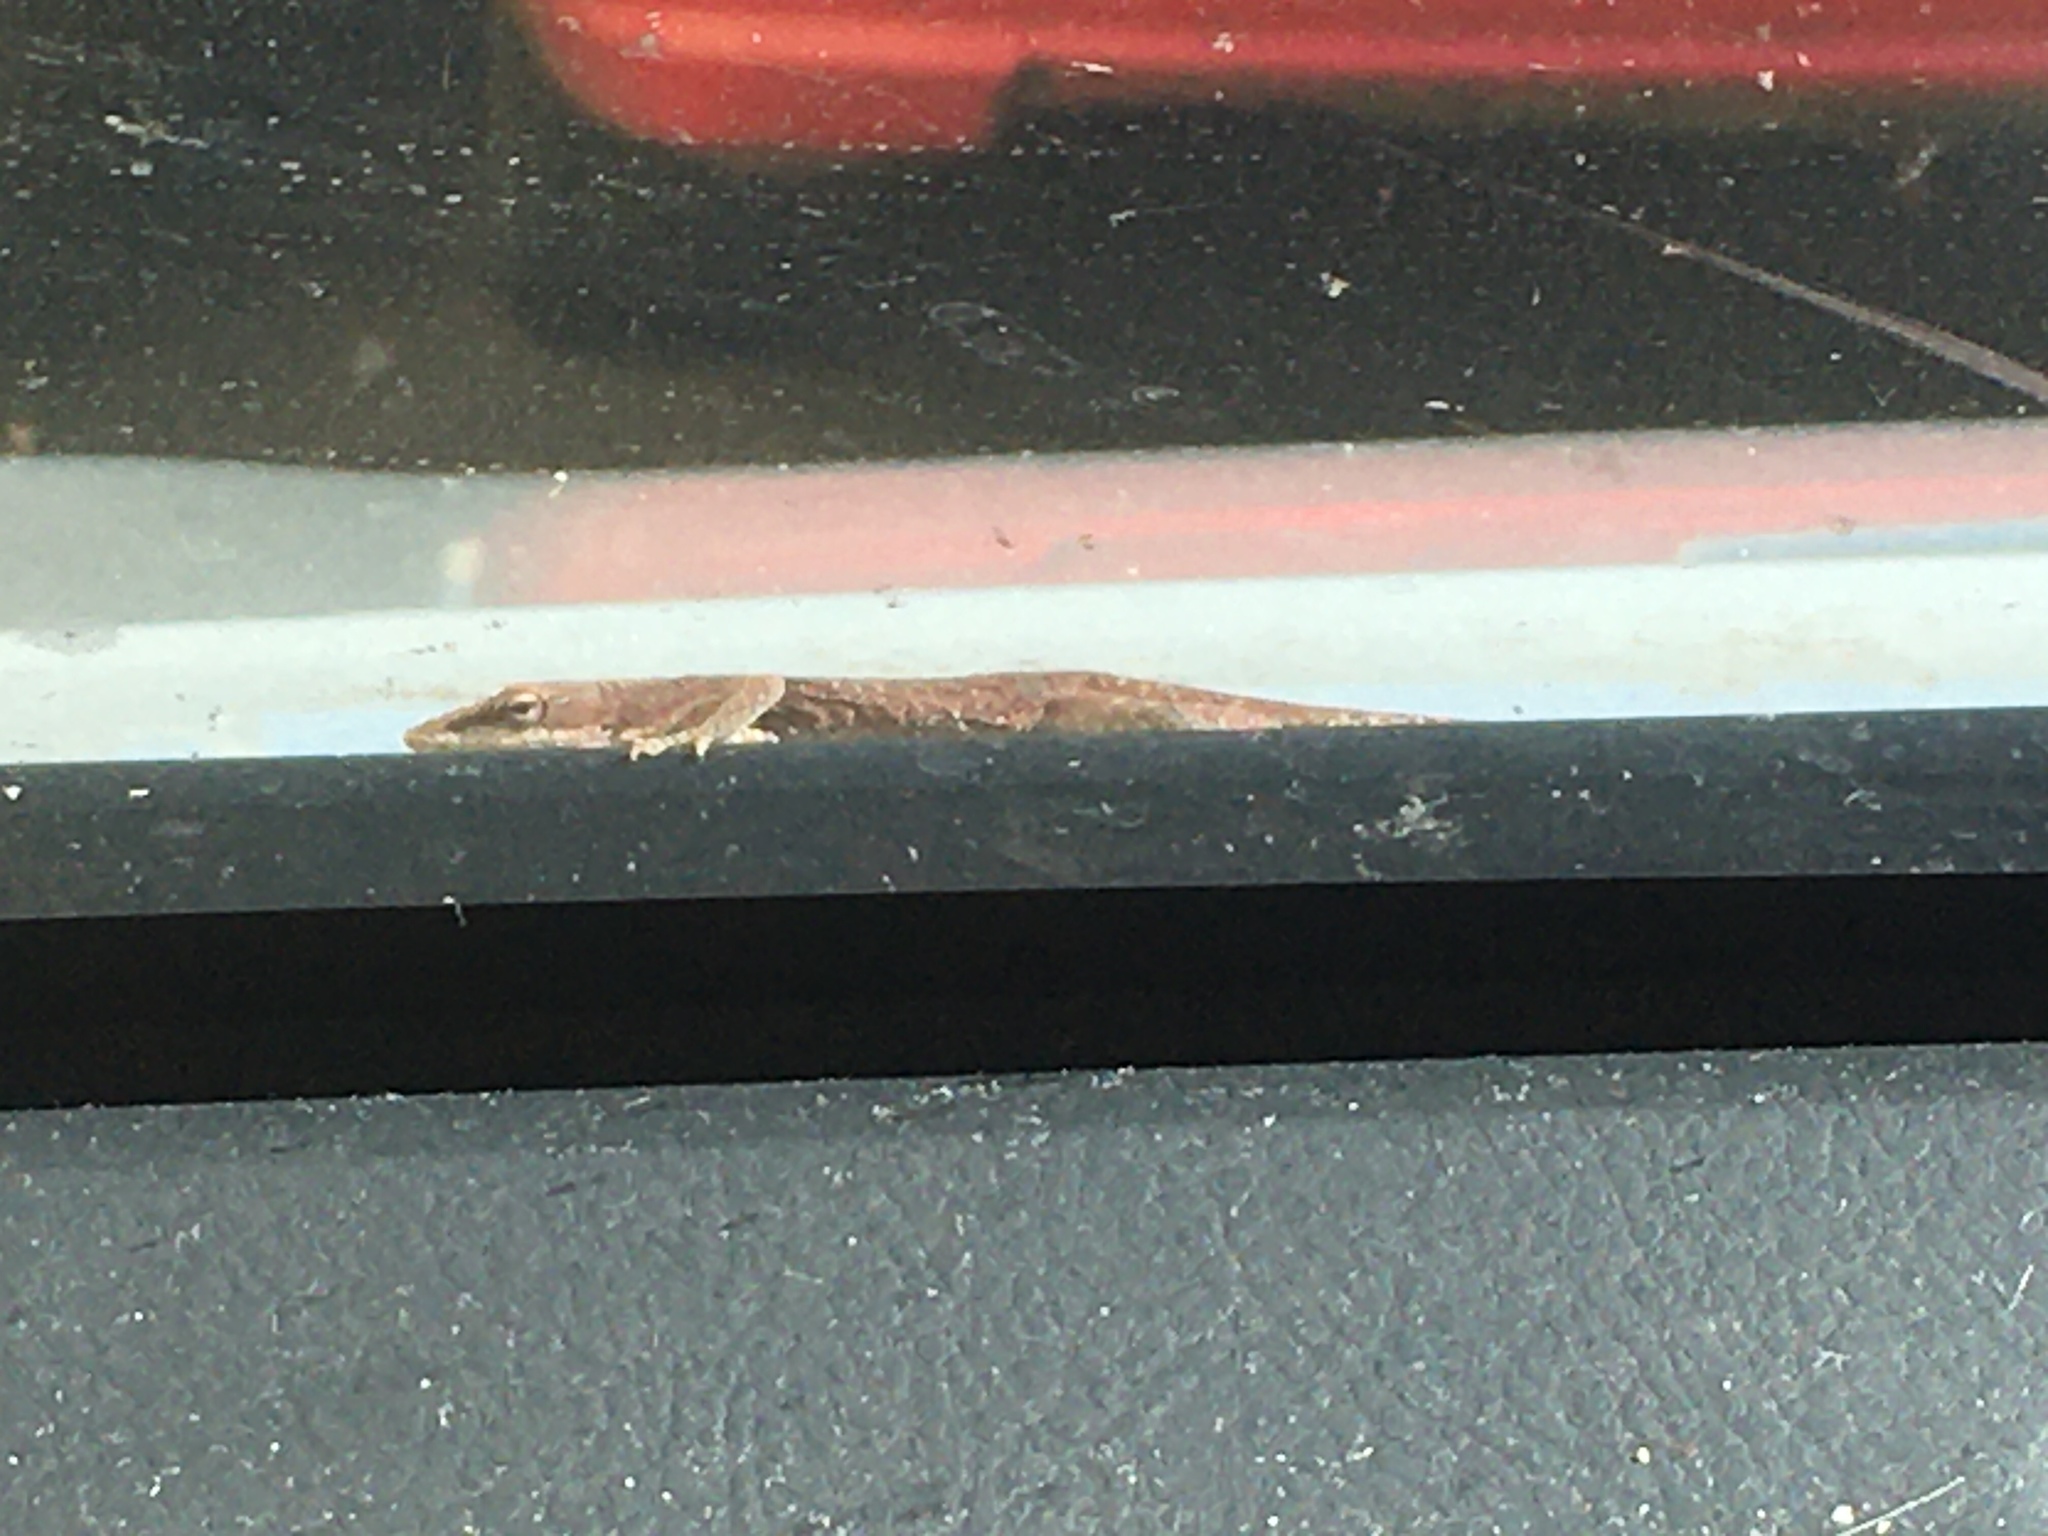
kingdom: Animalia
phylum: Chordata
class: Squamata
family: Dactyloidae
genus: Anolis
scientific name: Anolis carolinensis
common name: Green anole
